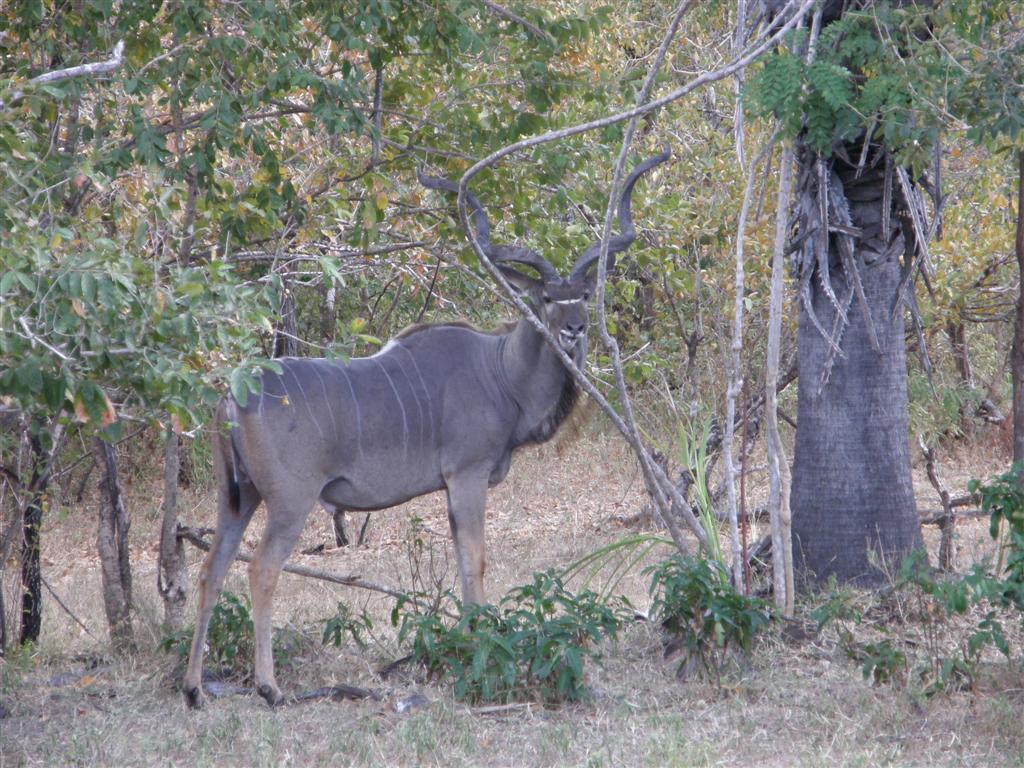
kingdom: Animalia
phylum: Chordata
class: Mammalia
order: Artiodactyla
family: Bovidae
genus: Tragelaphus
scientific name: Tragelaphus strepsiceros
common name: Greater kudu
